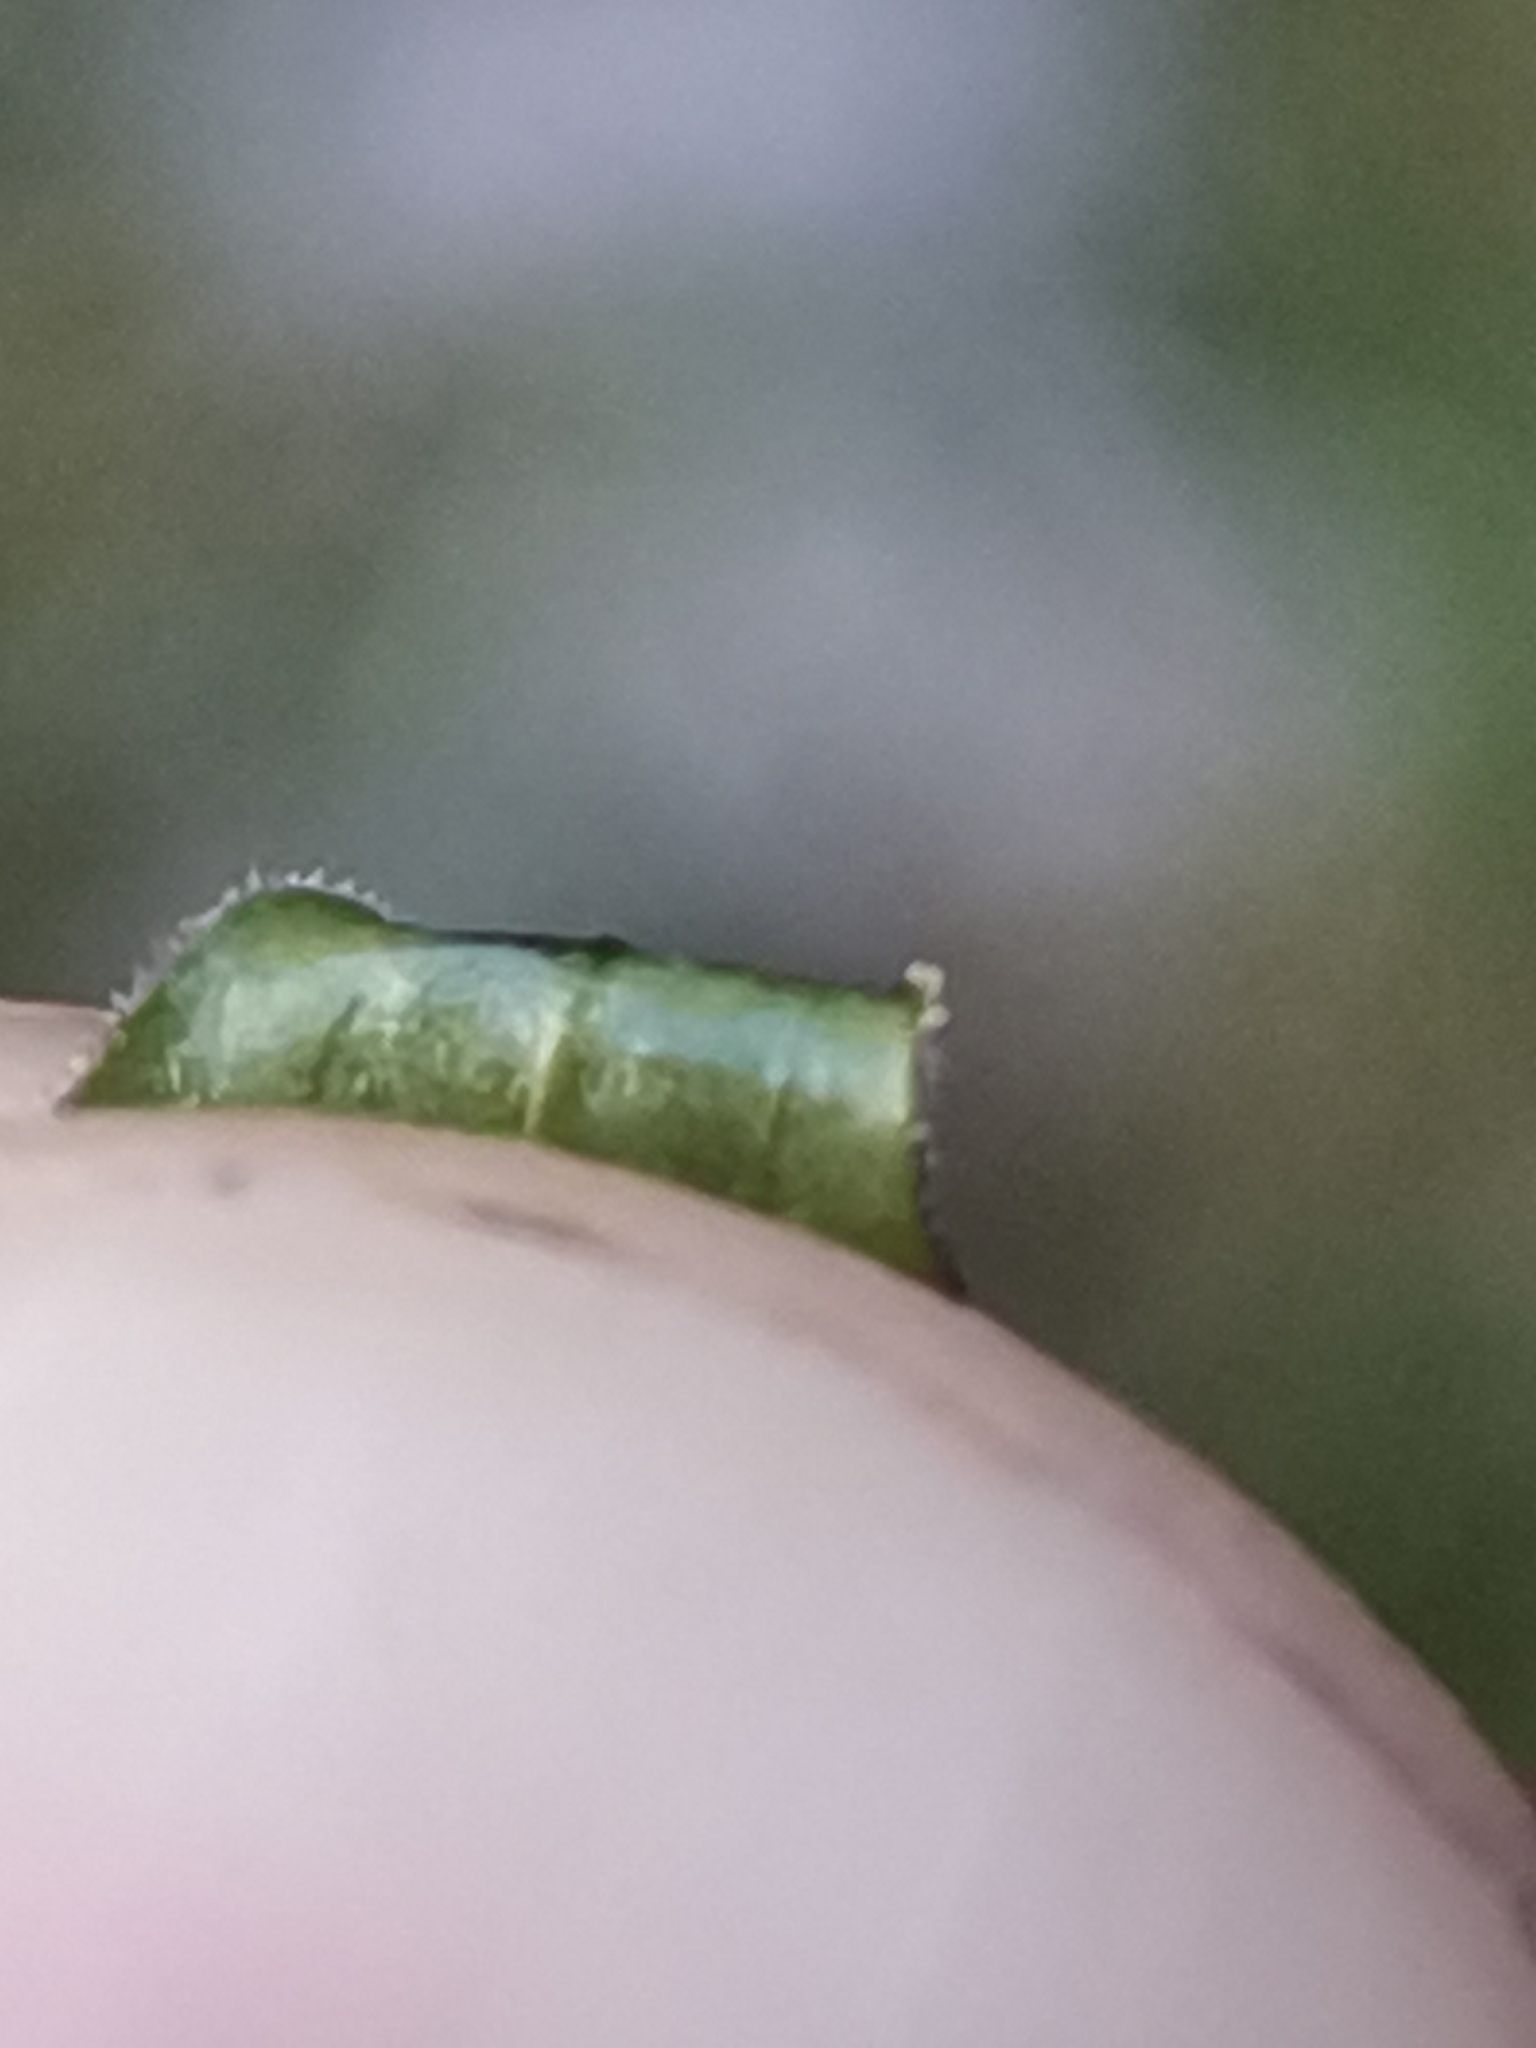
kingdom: Plantae
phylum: Tracheophyta
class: Magnoliopsida
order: Gentianales
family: Gentianaceae
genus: Gentianella
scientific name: Gentianella anisodonta
